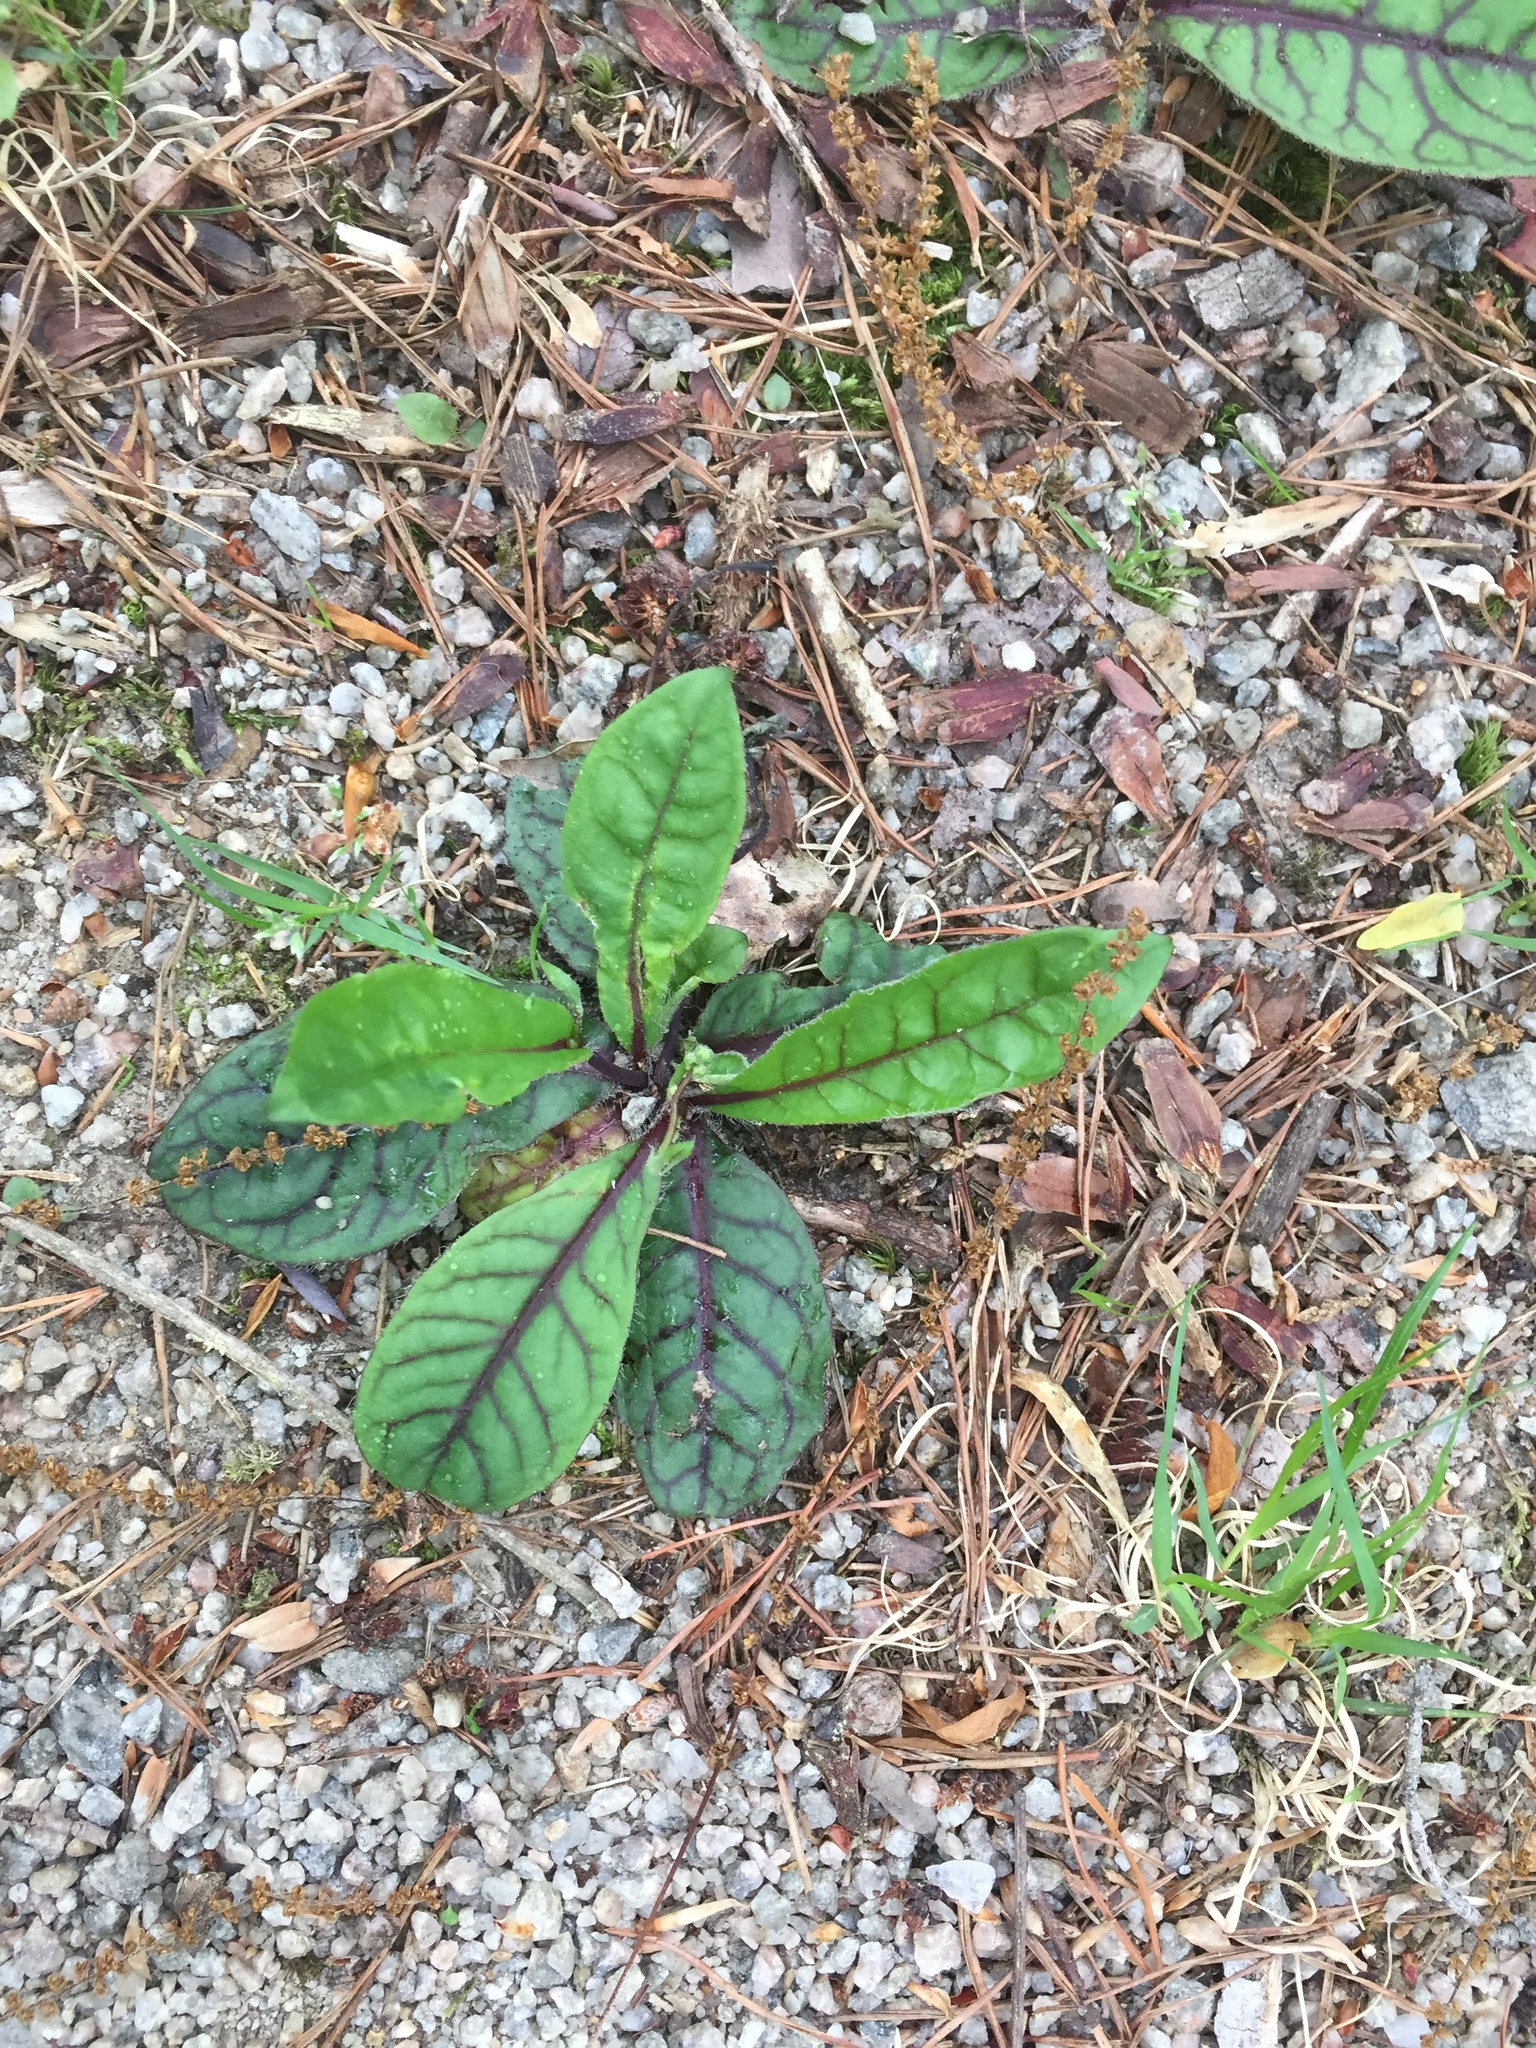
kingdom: Plantae
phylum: Tracheophyta
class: Magnoliopsida
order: Asterales
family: Asteraceae
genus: Hieracium
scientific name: Hieracium venosum
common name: Rattlesnake hawkweed
